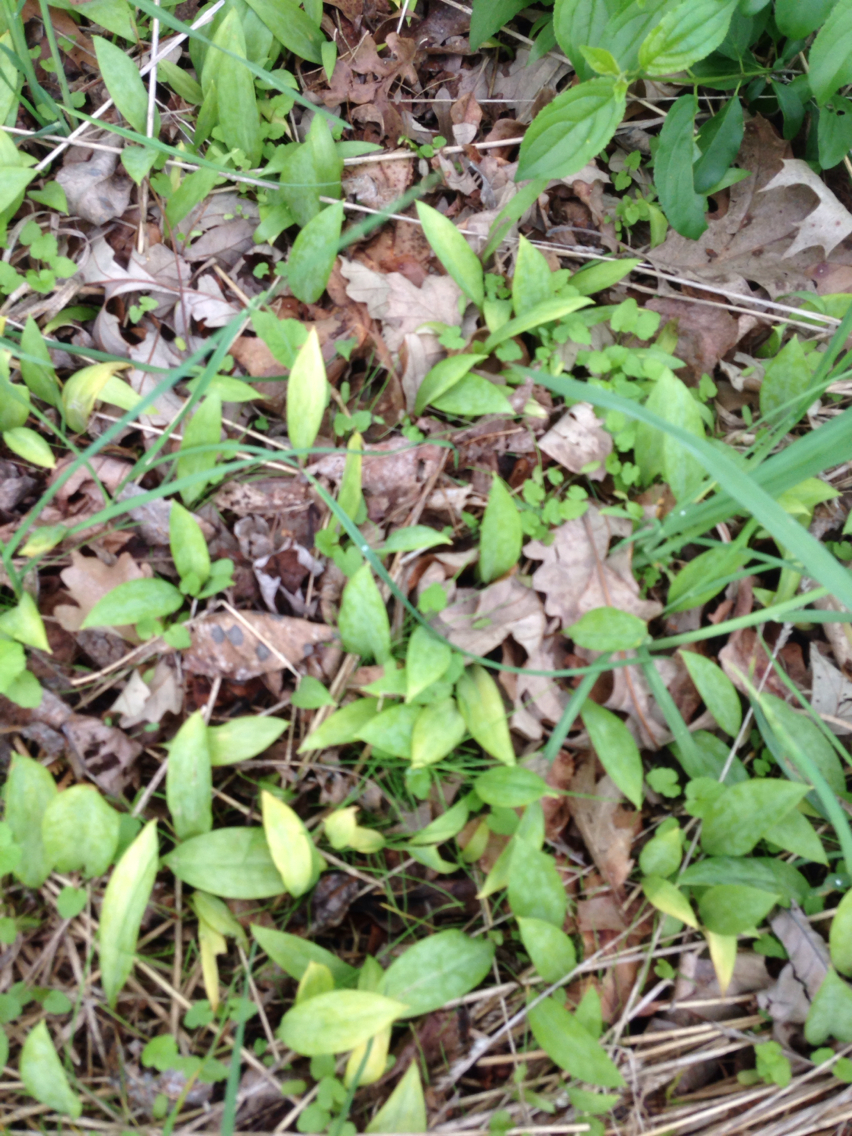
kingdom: Plantae
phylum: Tracheophyta
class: Liliopsida
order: Liliales
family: Liliaceae
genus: Erythronium
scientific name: Erythronium americanum
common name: Yellow adder's-tongue
